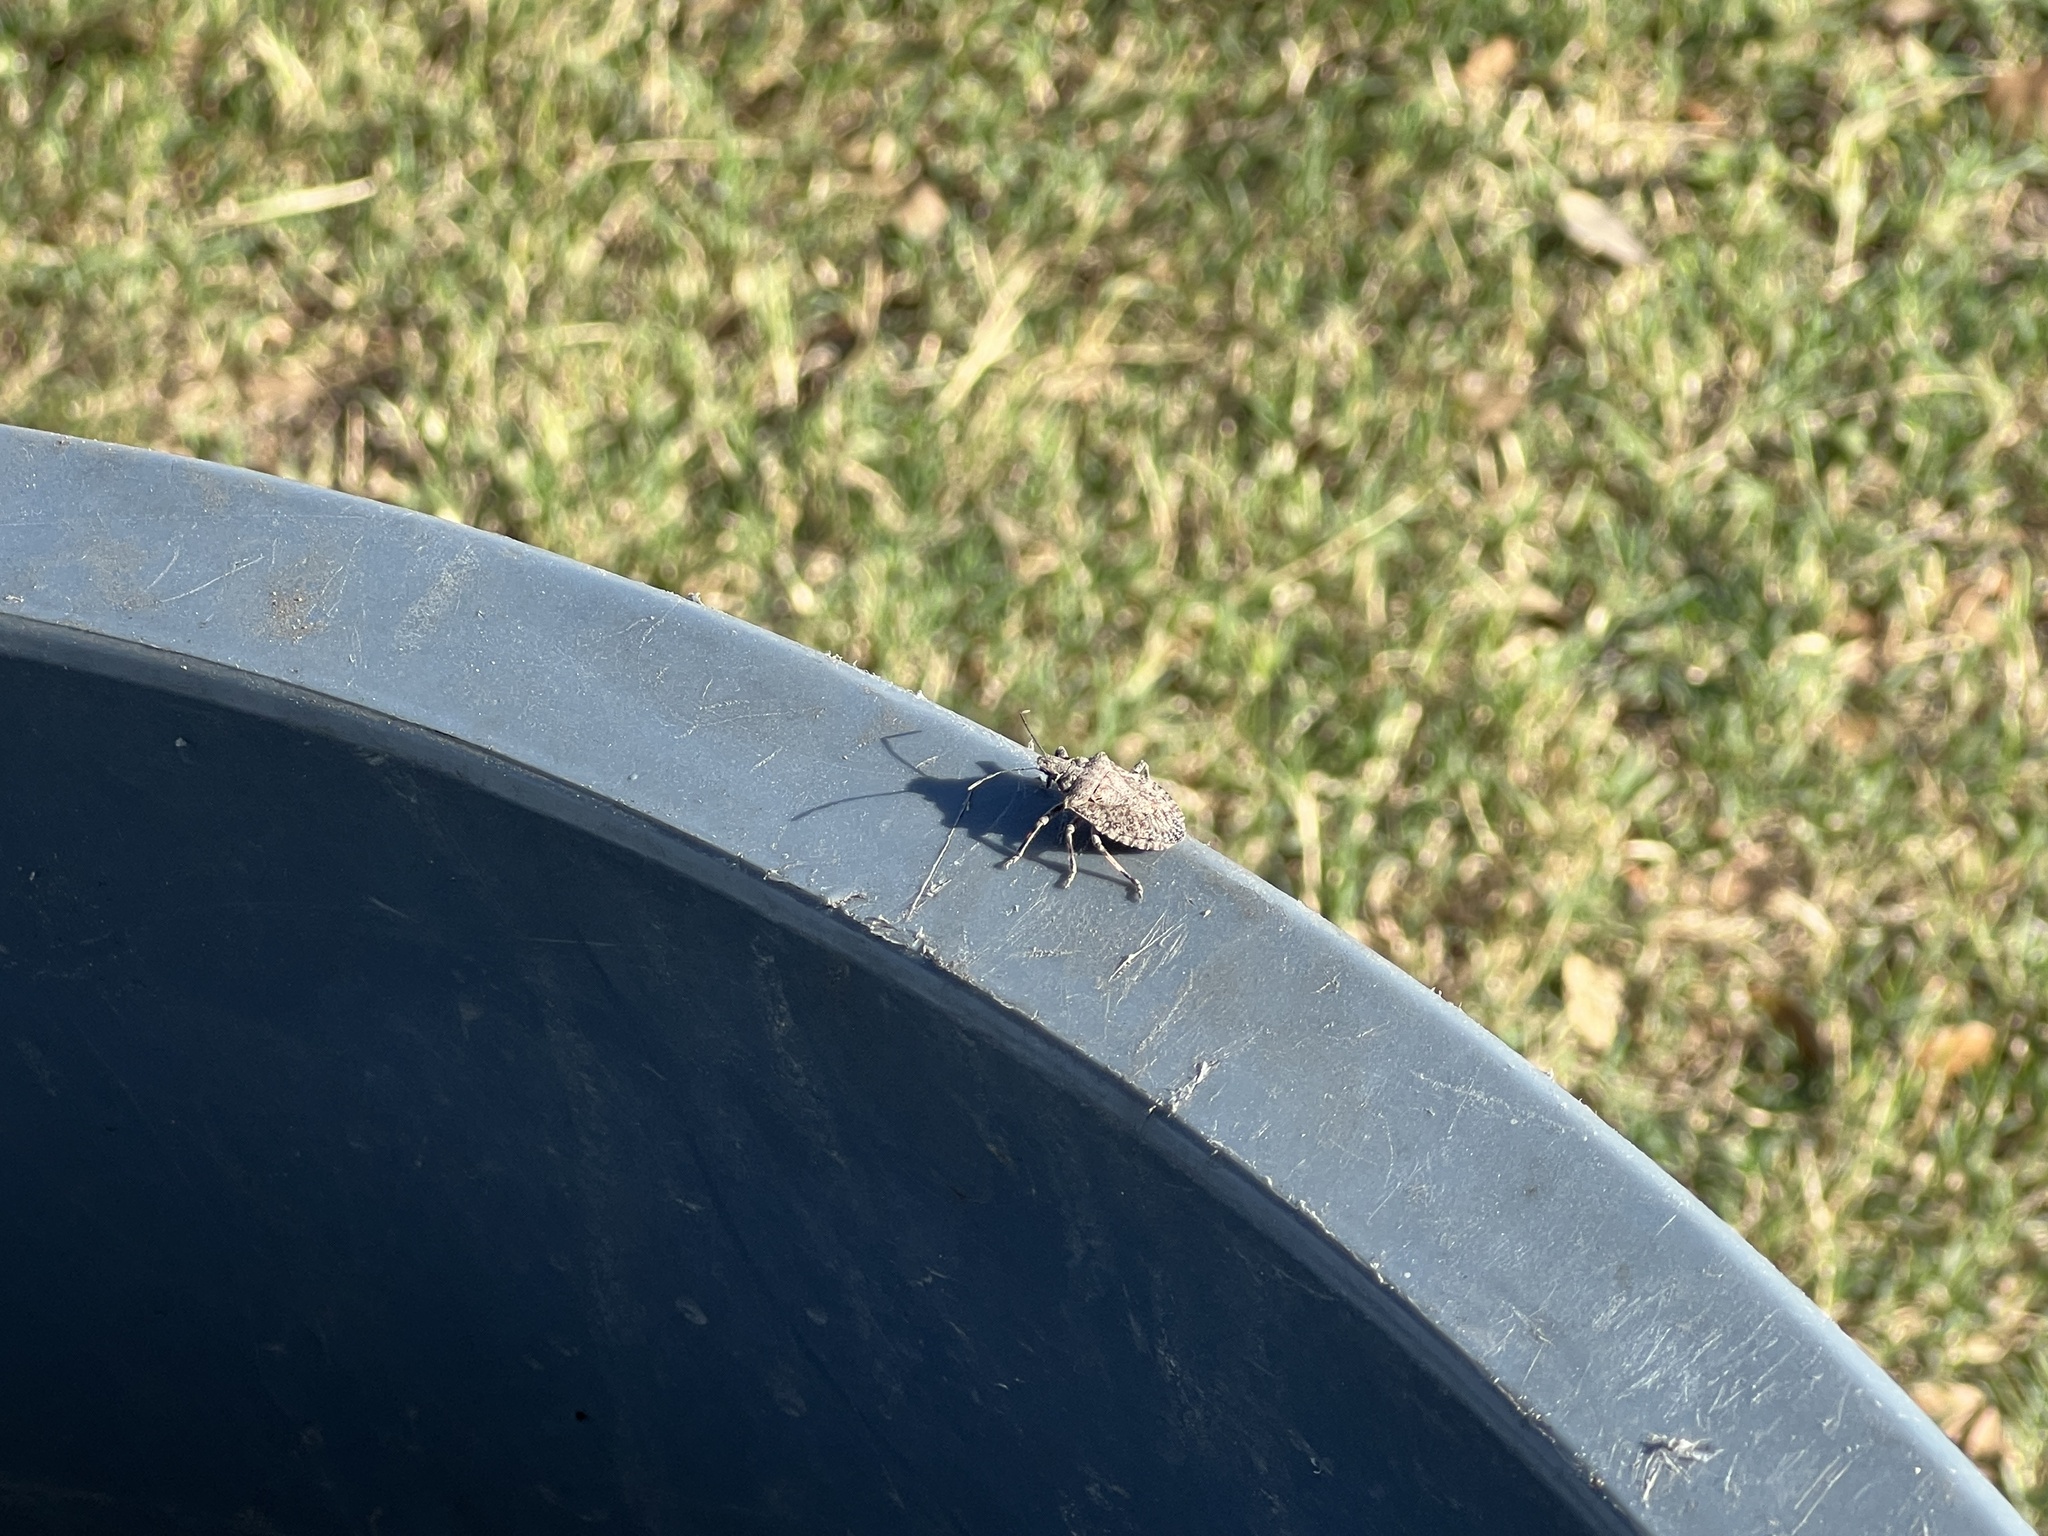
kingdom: Animalia
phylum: Arthropoda
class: Insecta
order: Hemiptera
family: Pentatomidae
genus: Brochymena
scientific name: Brochymena arborea
